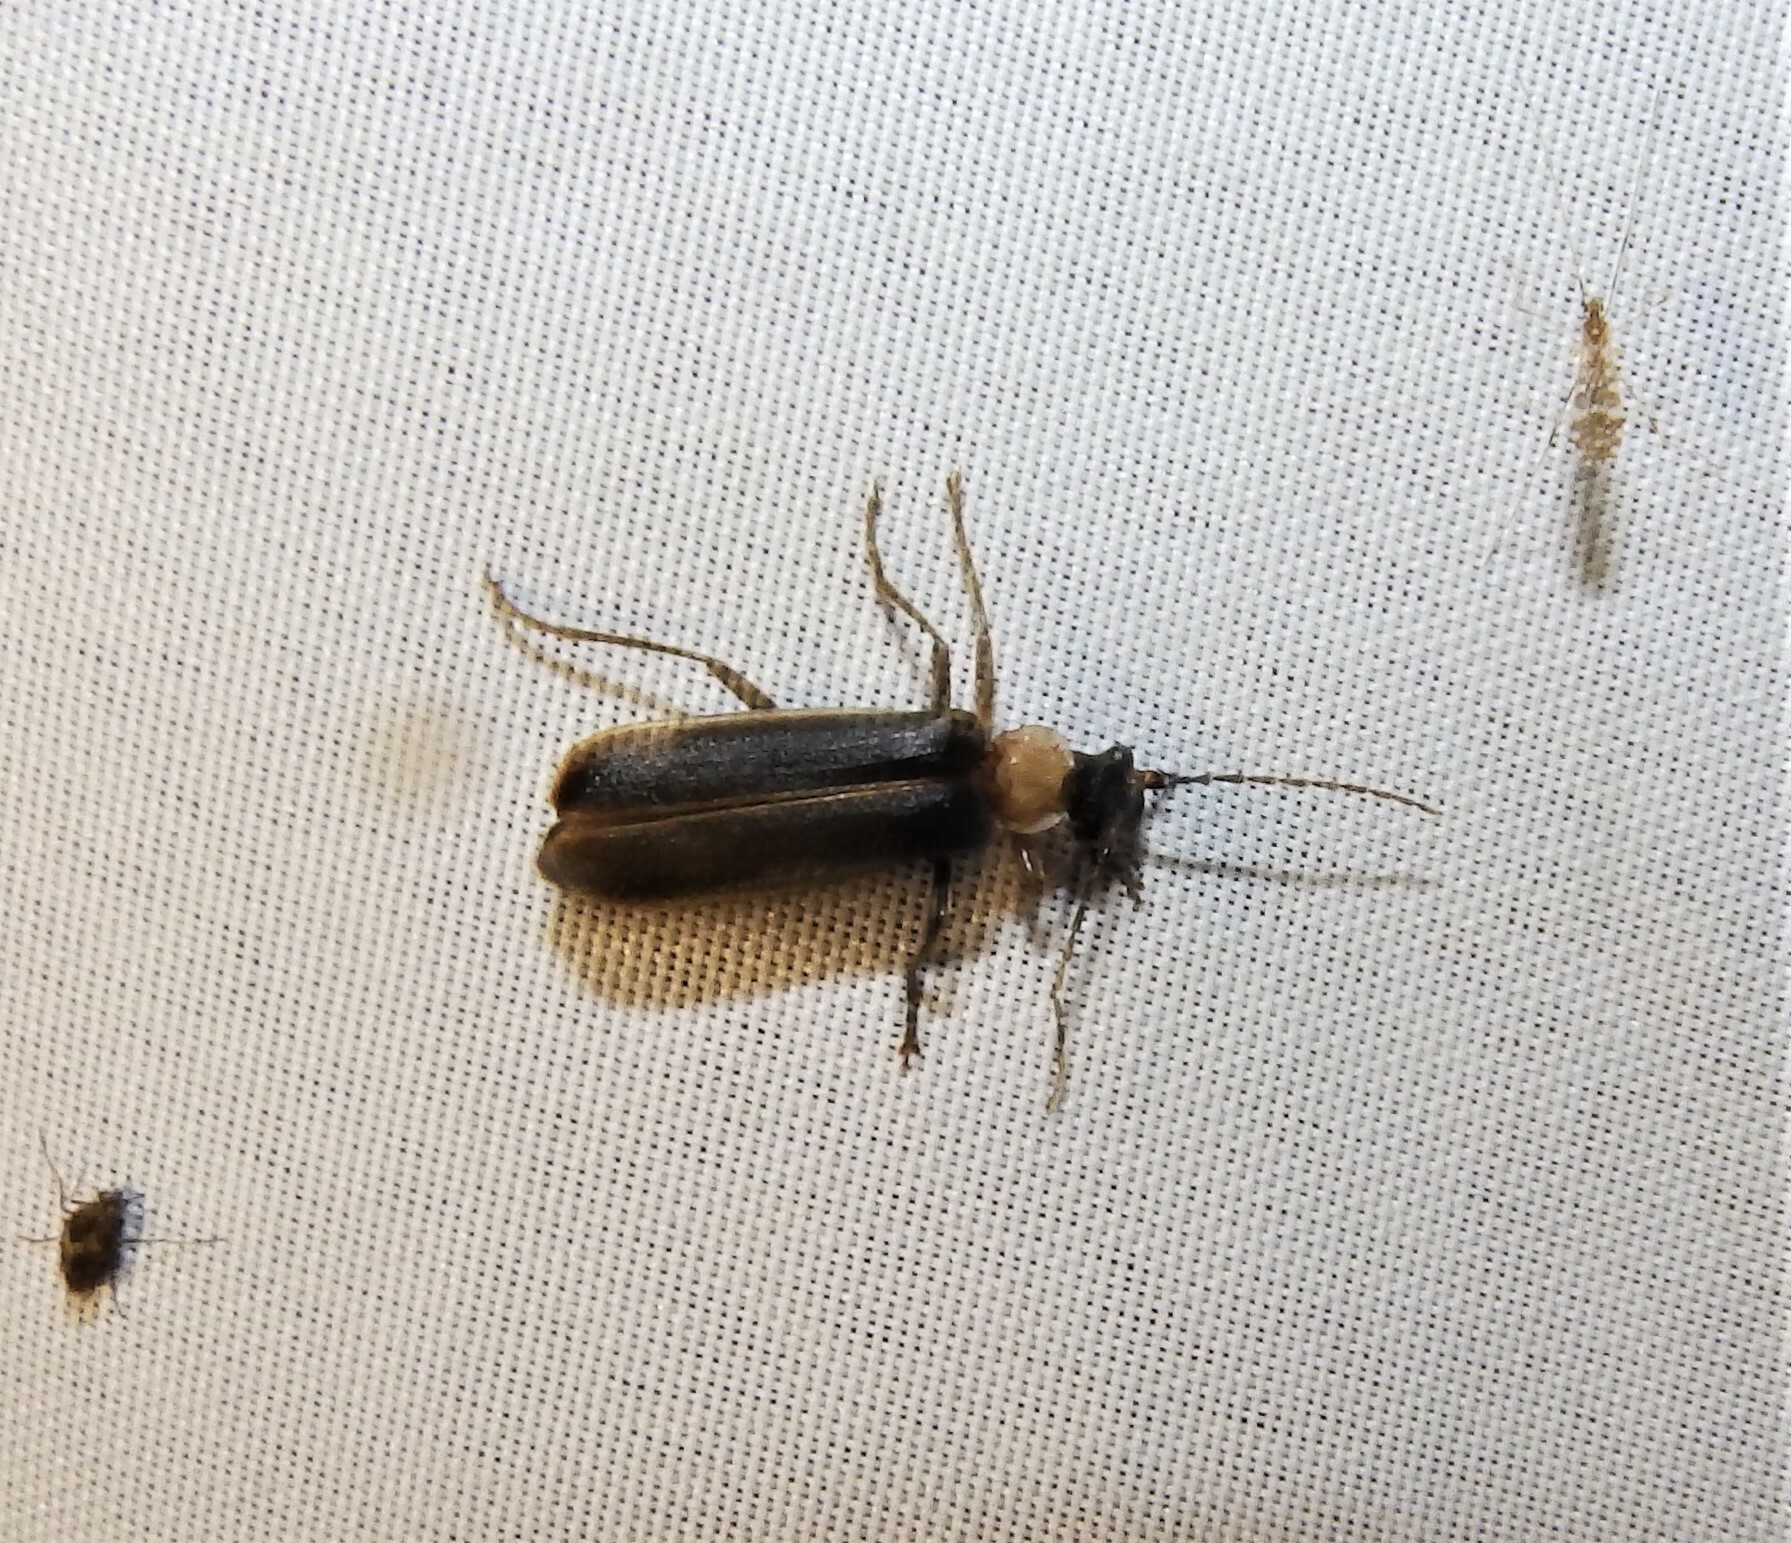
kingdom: Animalia
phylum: Arthropoda
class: Insecta
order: Coleoptera
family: Cantharidae
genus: Podabrus
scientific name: Podabrus flavicollis
